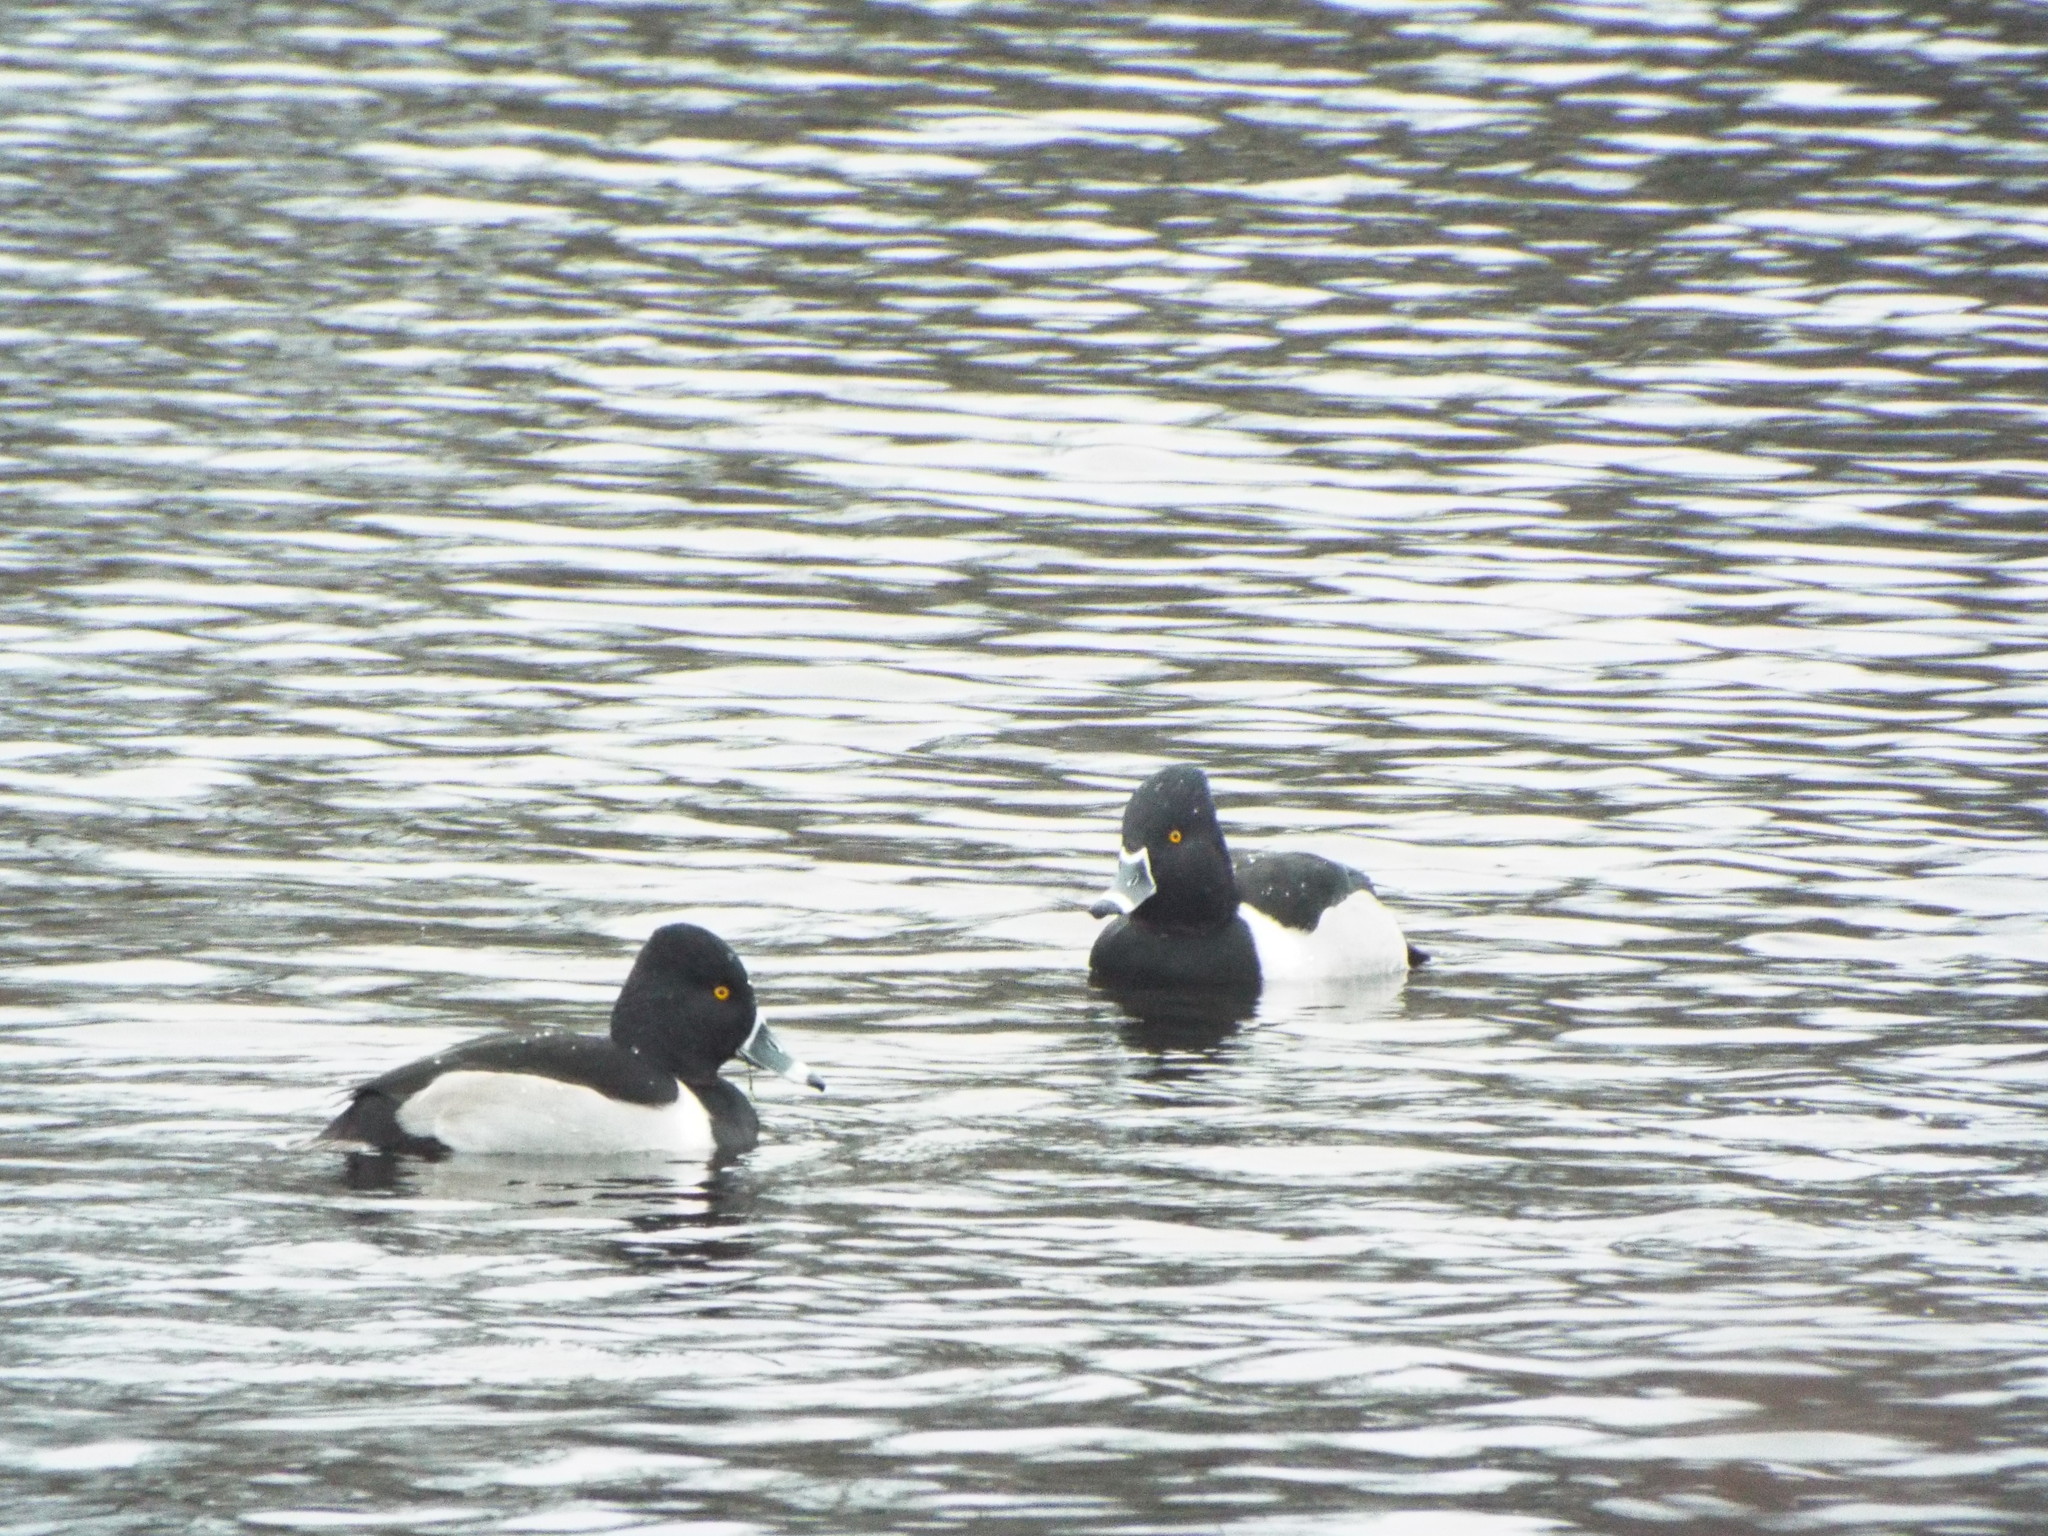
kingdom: Animalia
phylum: Chordata
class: Aves
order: Anseriformes
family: Anatidae
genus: Aythya
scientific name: Aythya collaris
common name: Ring-necked duck
